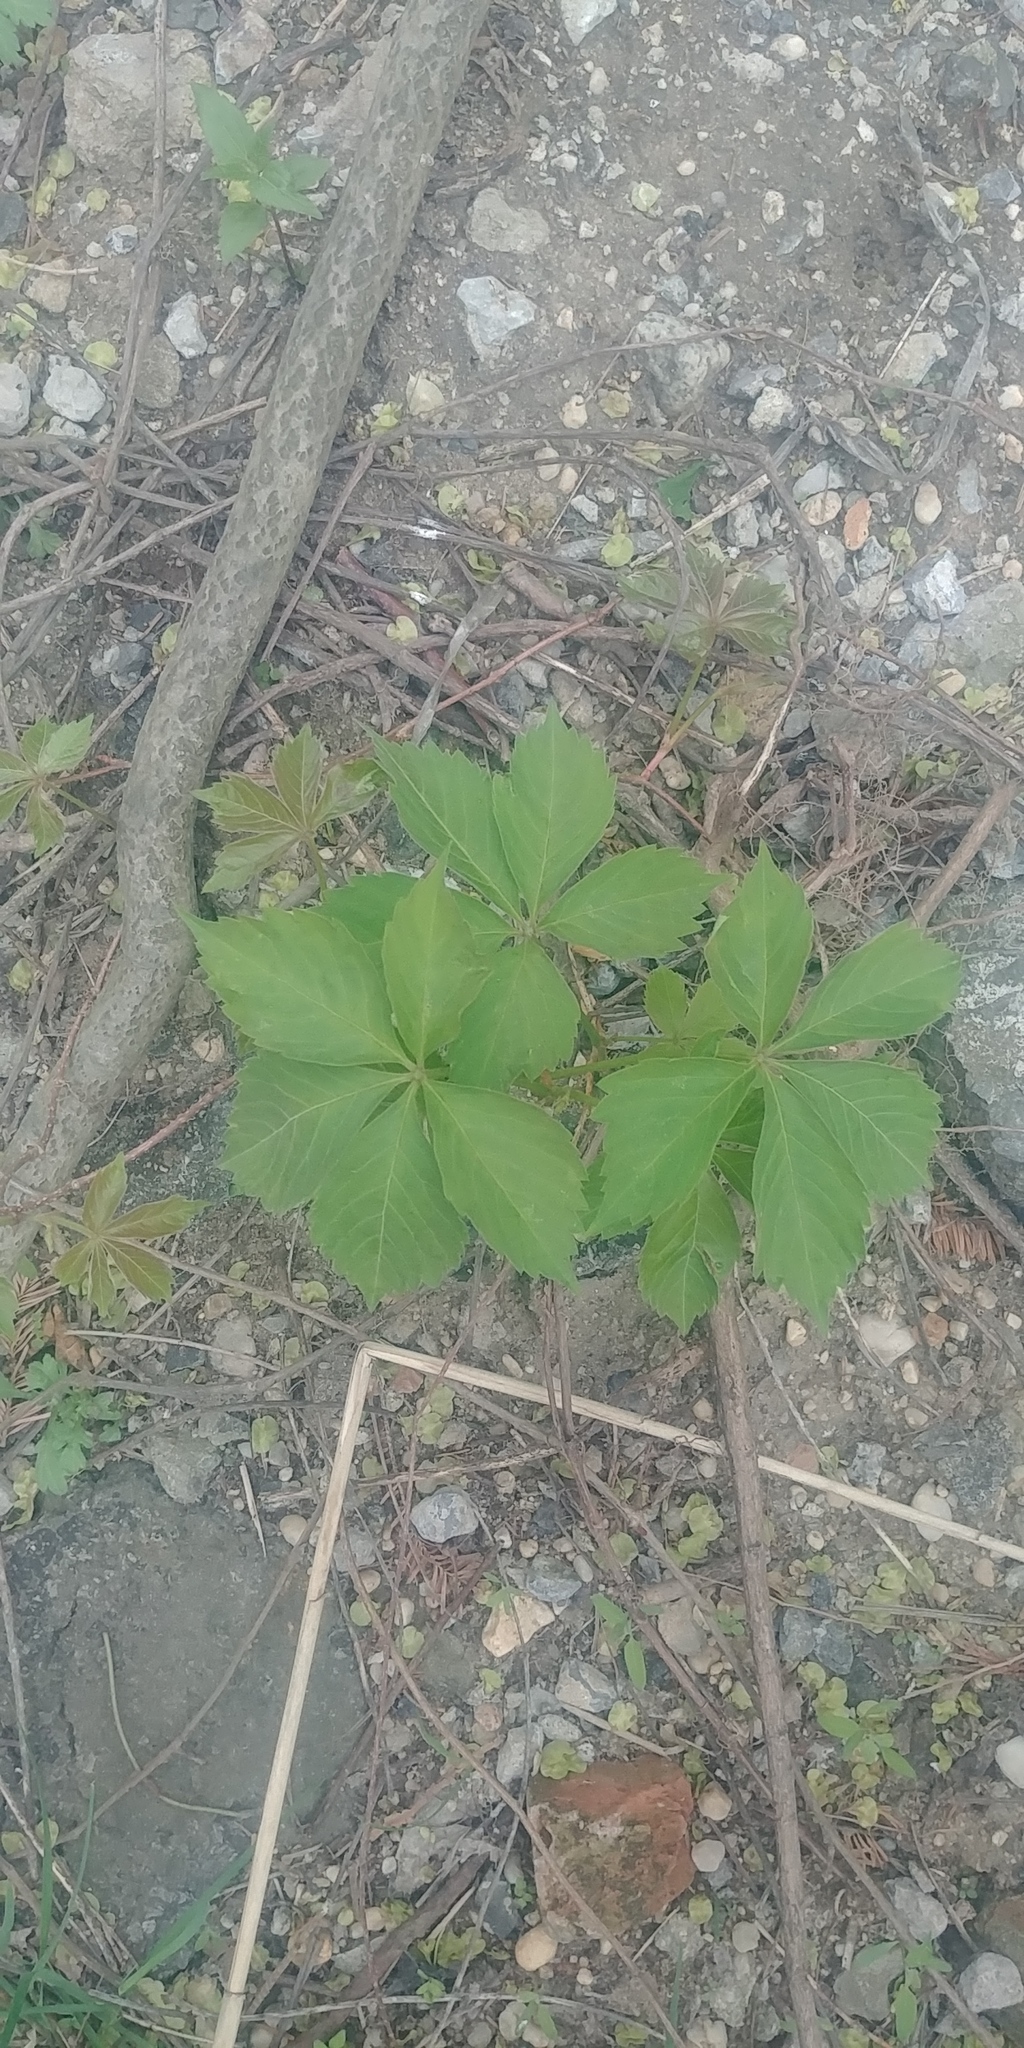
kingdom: Plantae
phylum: Tracheophyta
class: Magnoliopsida
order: Vitales
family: Vitaceae
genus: Parthenocissus
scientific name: Parthenocissus quinquefolia
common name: Virginia-creeper
